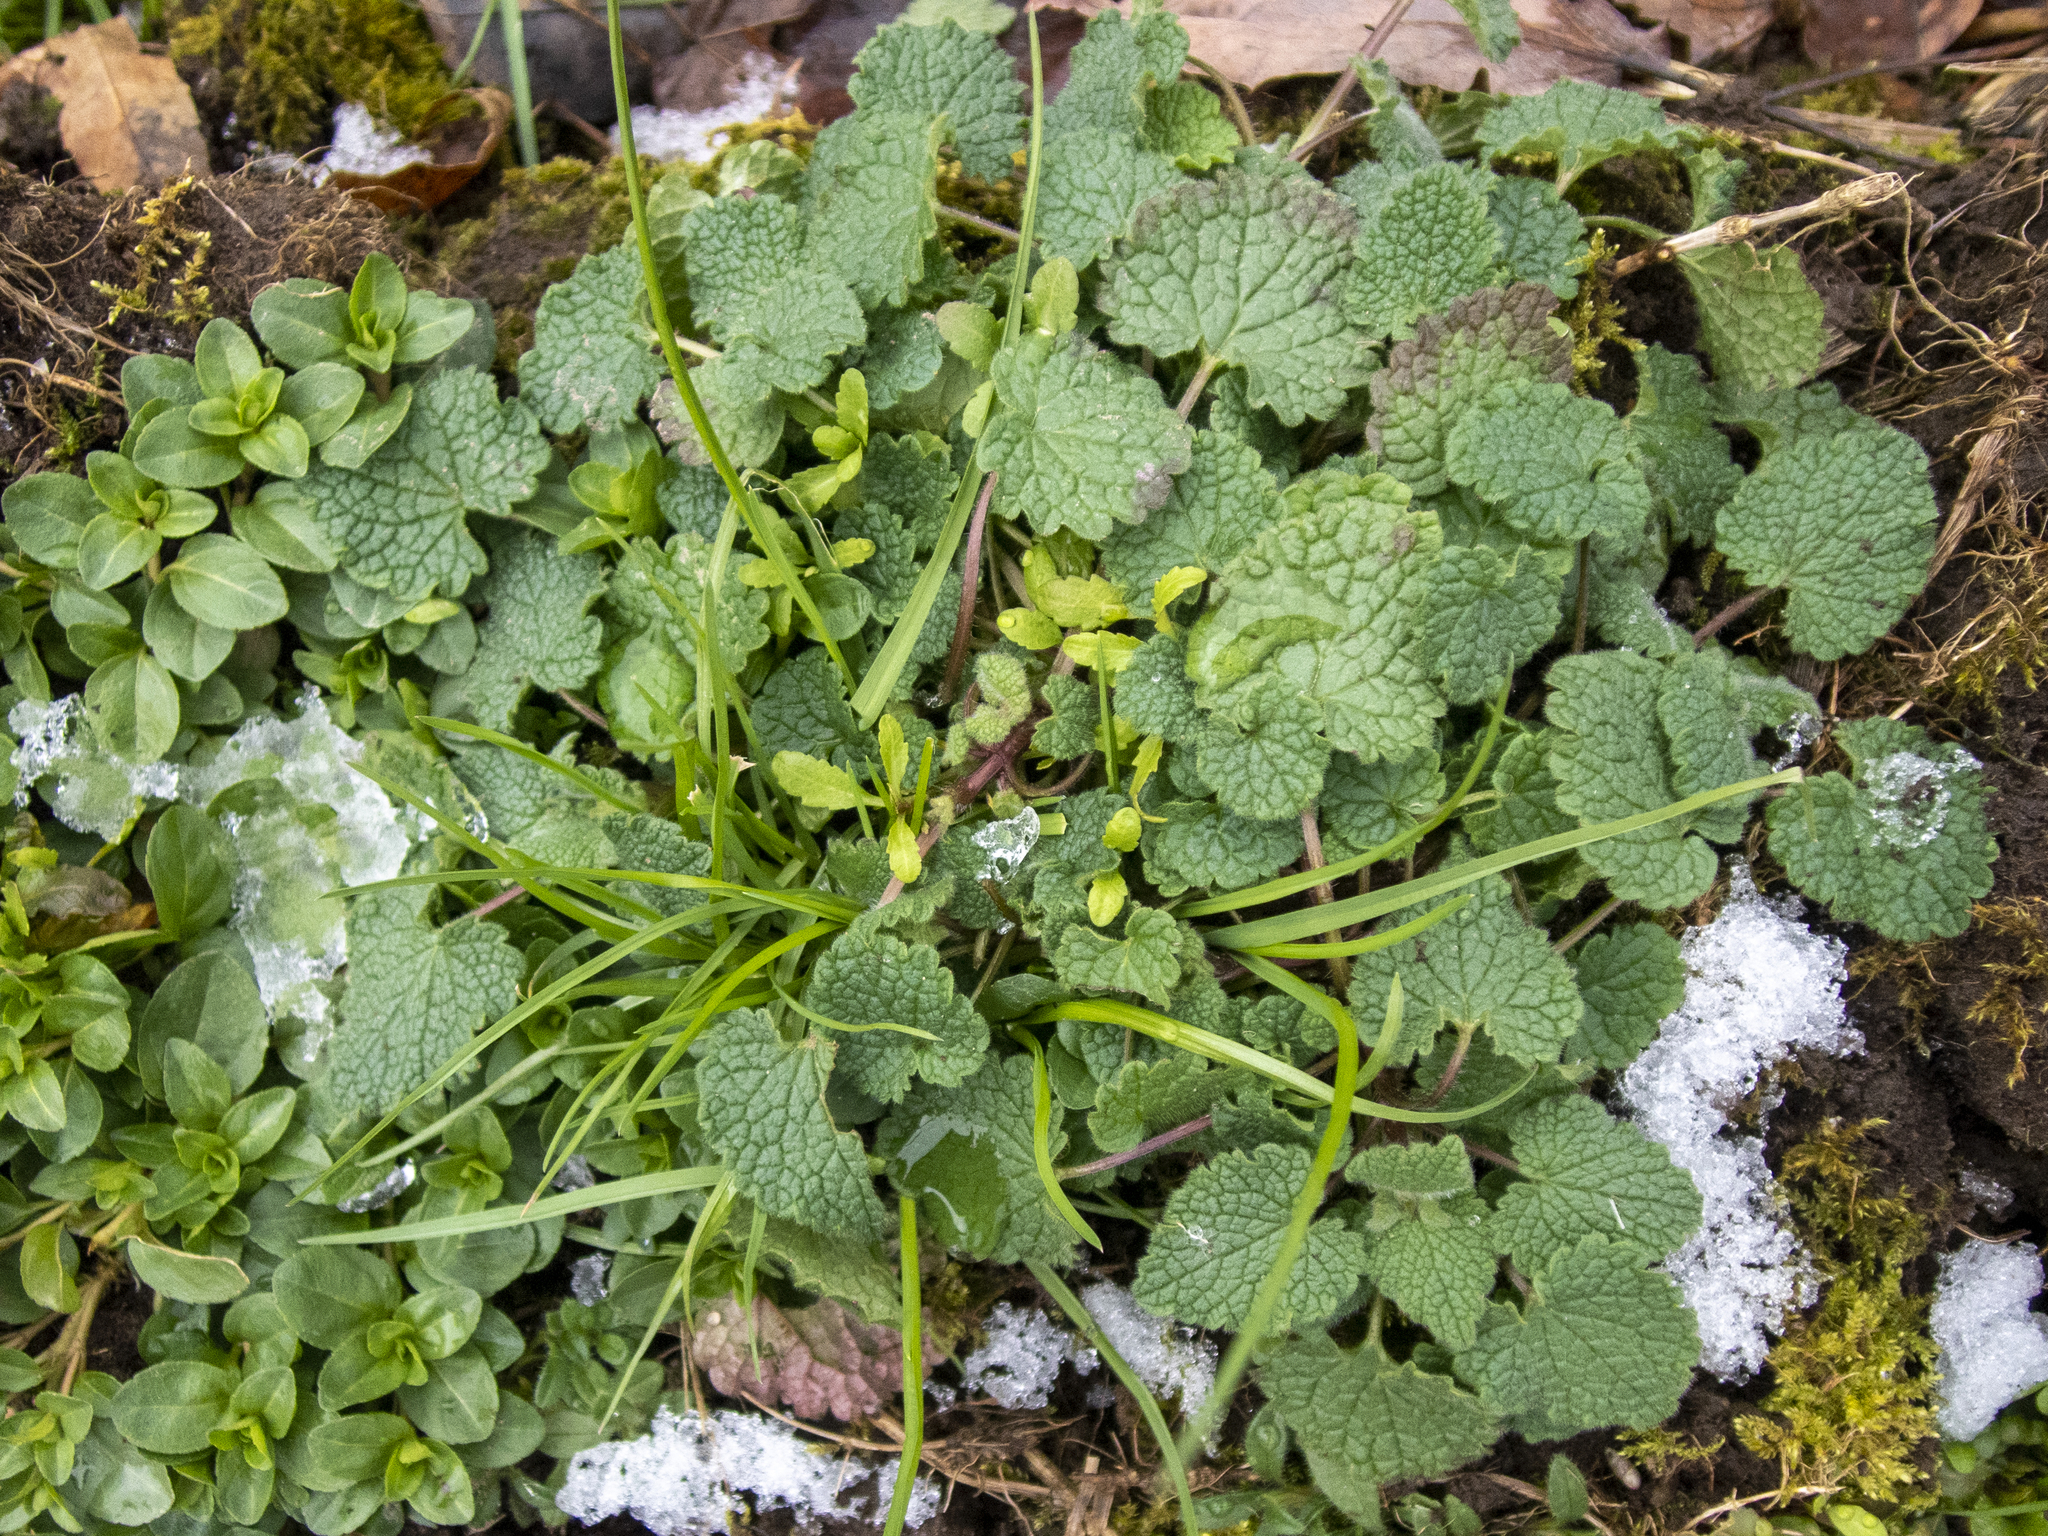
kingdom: Plantae
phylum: Tracheophyta
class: Magnoliopsida
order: Lamiales
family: Lamiaceae
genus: Lamium
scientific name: Lamium purpureum
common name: Red dead-nettle
